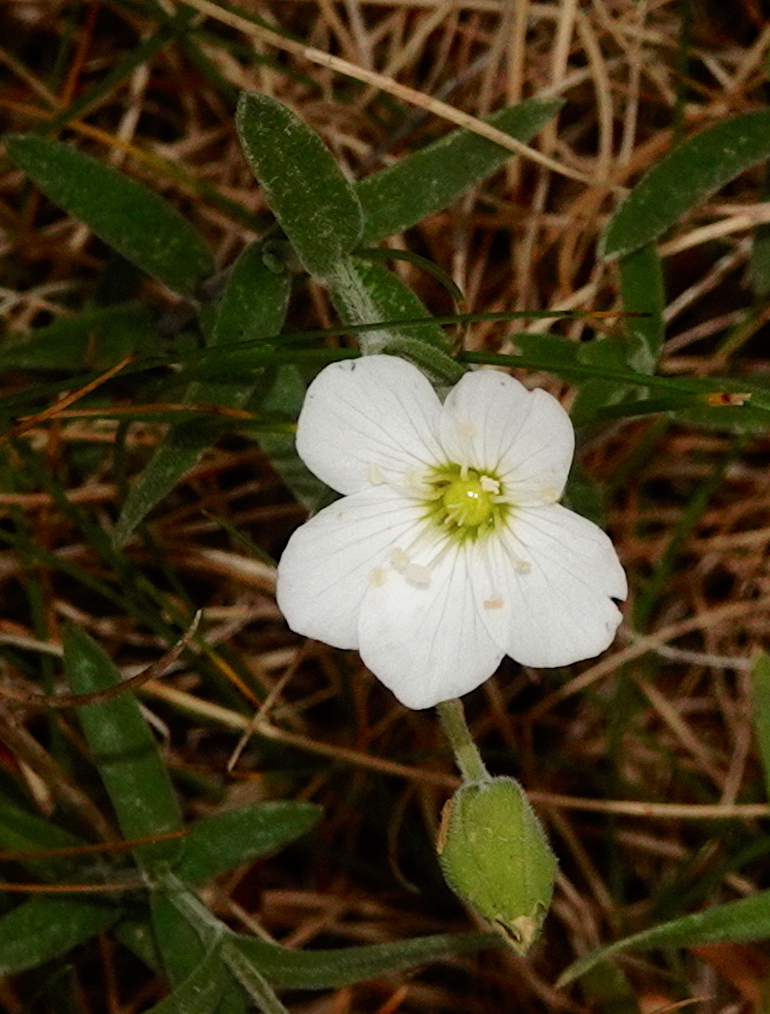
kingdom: Plantae
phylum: Tracheophyta
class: Magnoliopsida
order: Caryophyllales
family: Caryophyllaceae
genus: Arenaria
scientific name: Arenaria montana
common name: Mountain sandwort
